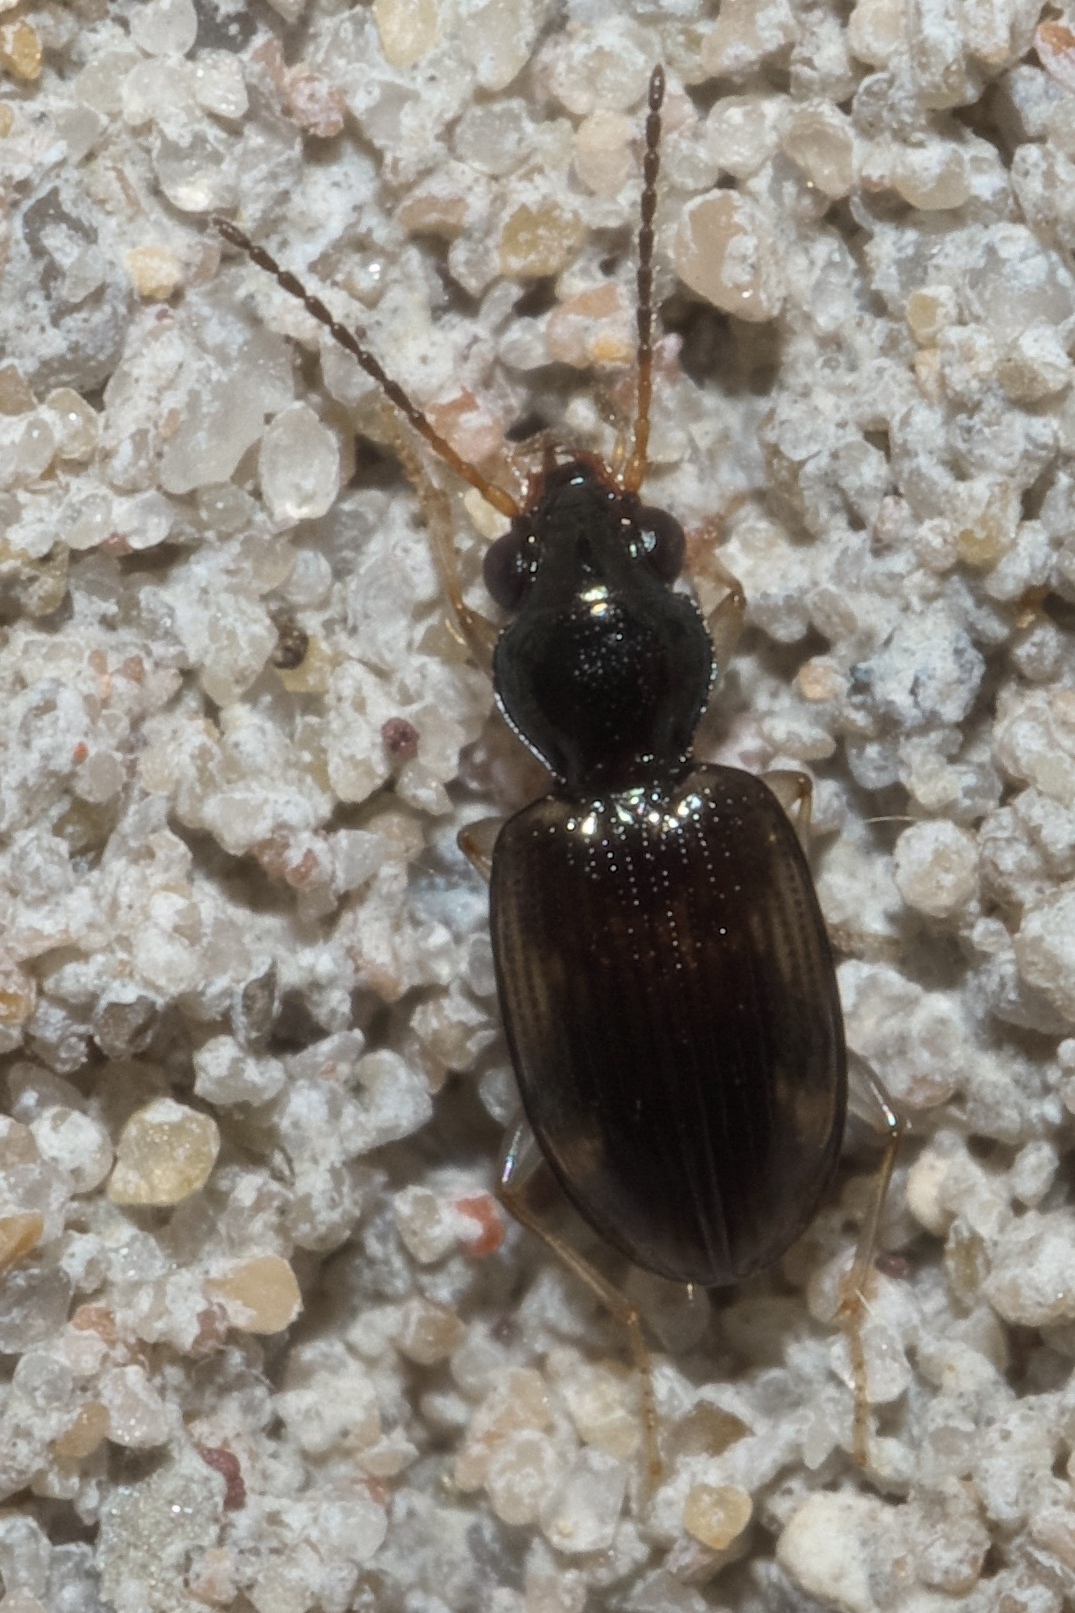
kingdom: Animalia
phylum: Arthropoda
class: Insecta
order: Coleoptera
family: Carabidae
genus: Bembidion
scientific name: Bembidion affine
